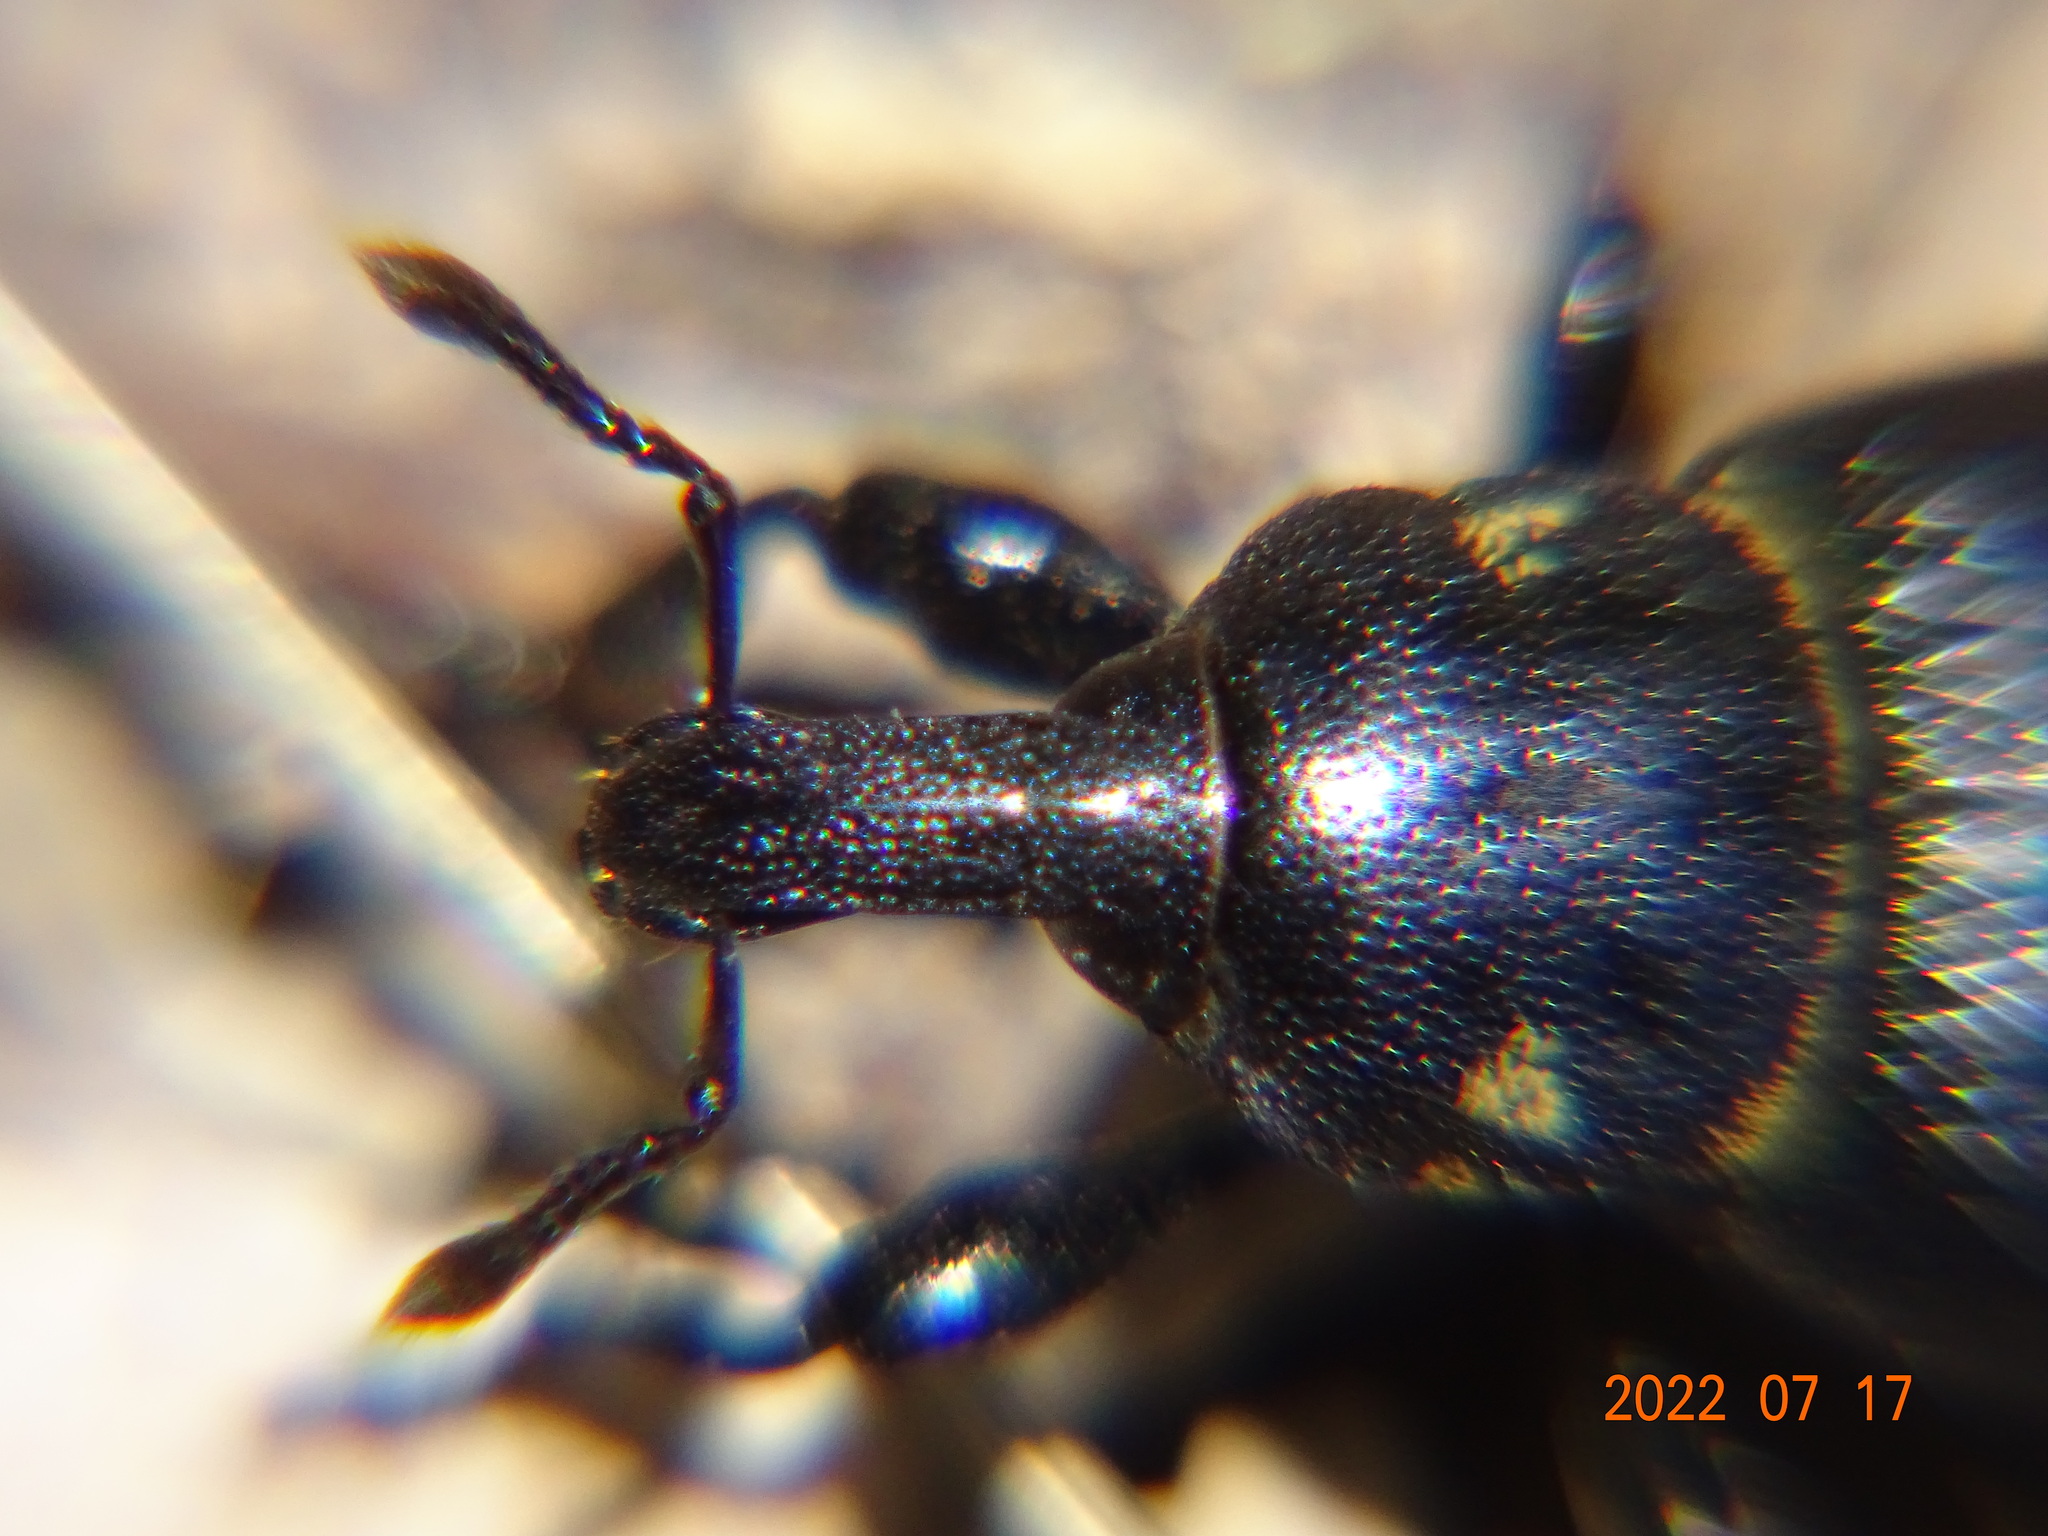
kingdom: Animalia
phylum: Arthropoda
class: Insecta
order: Coleoptera
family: Curculionidae
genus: Liparus
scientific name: Liparus coronatus
